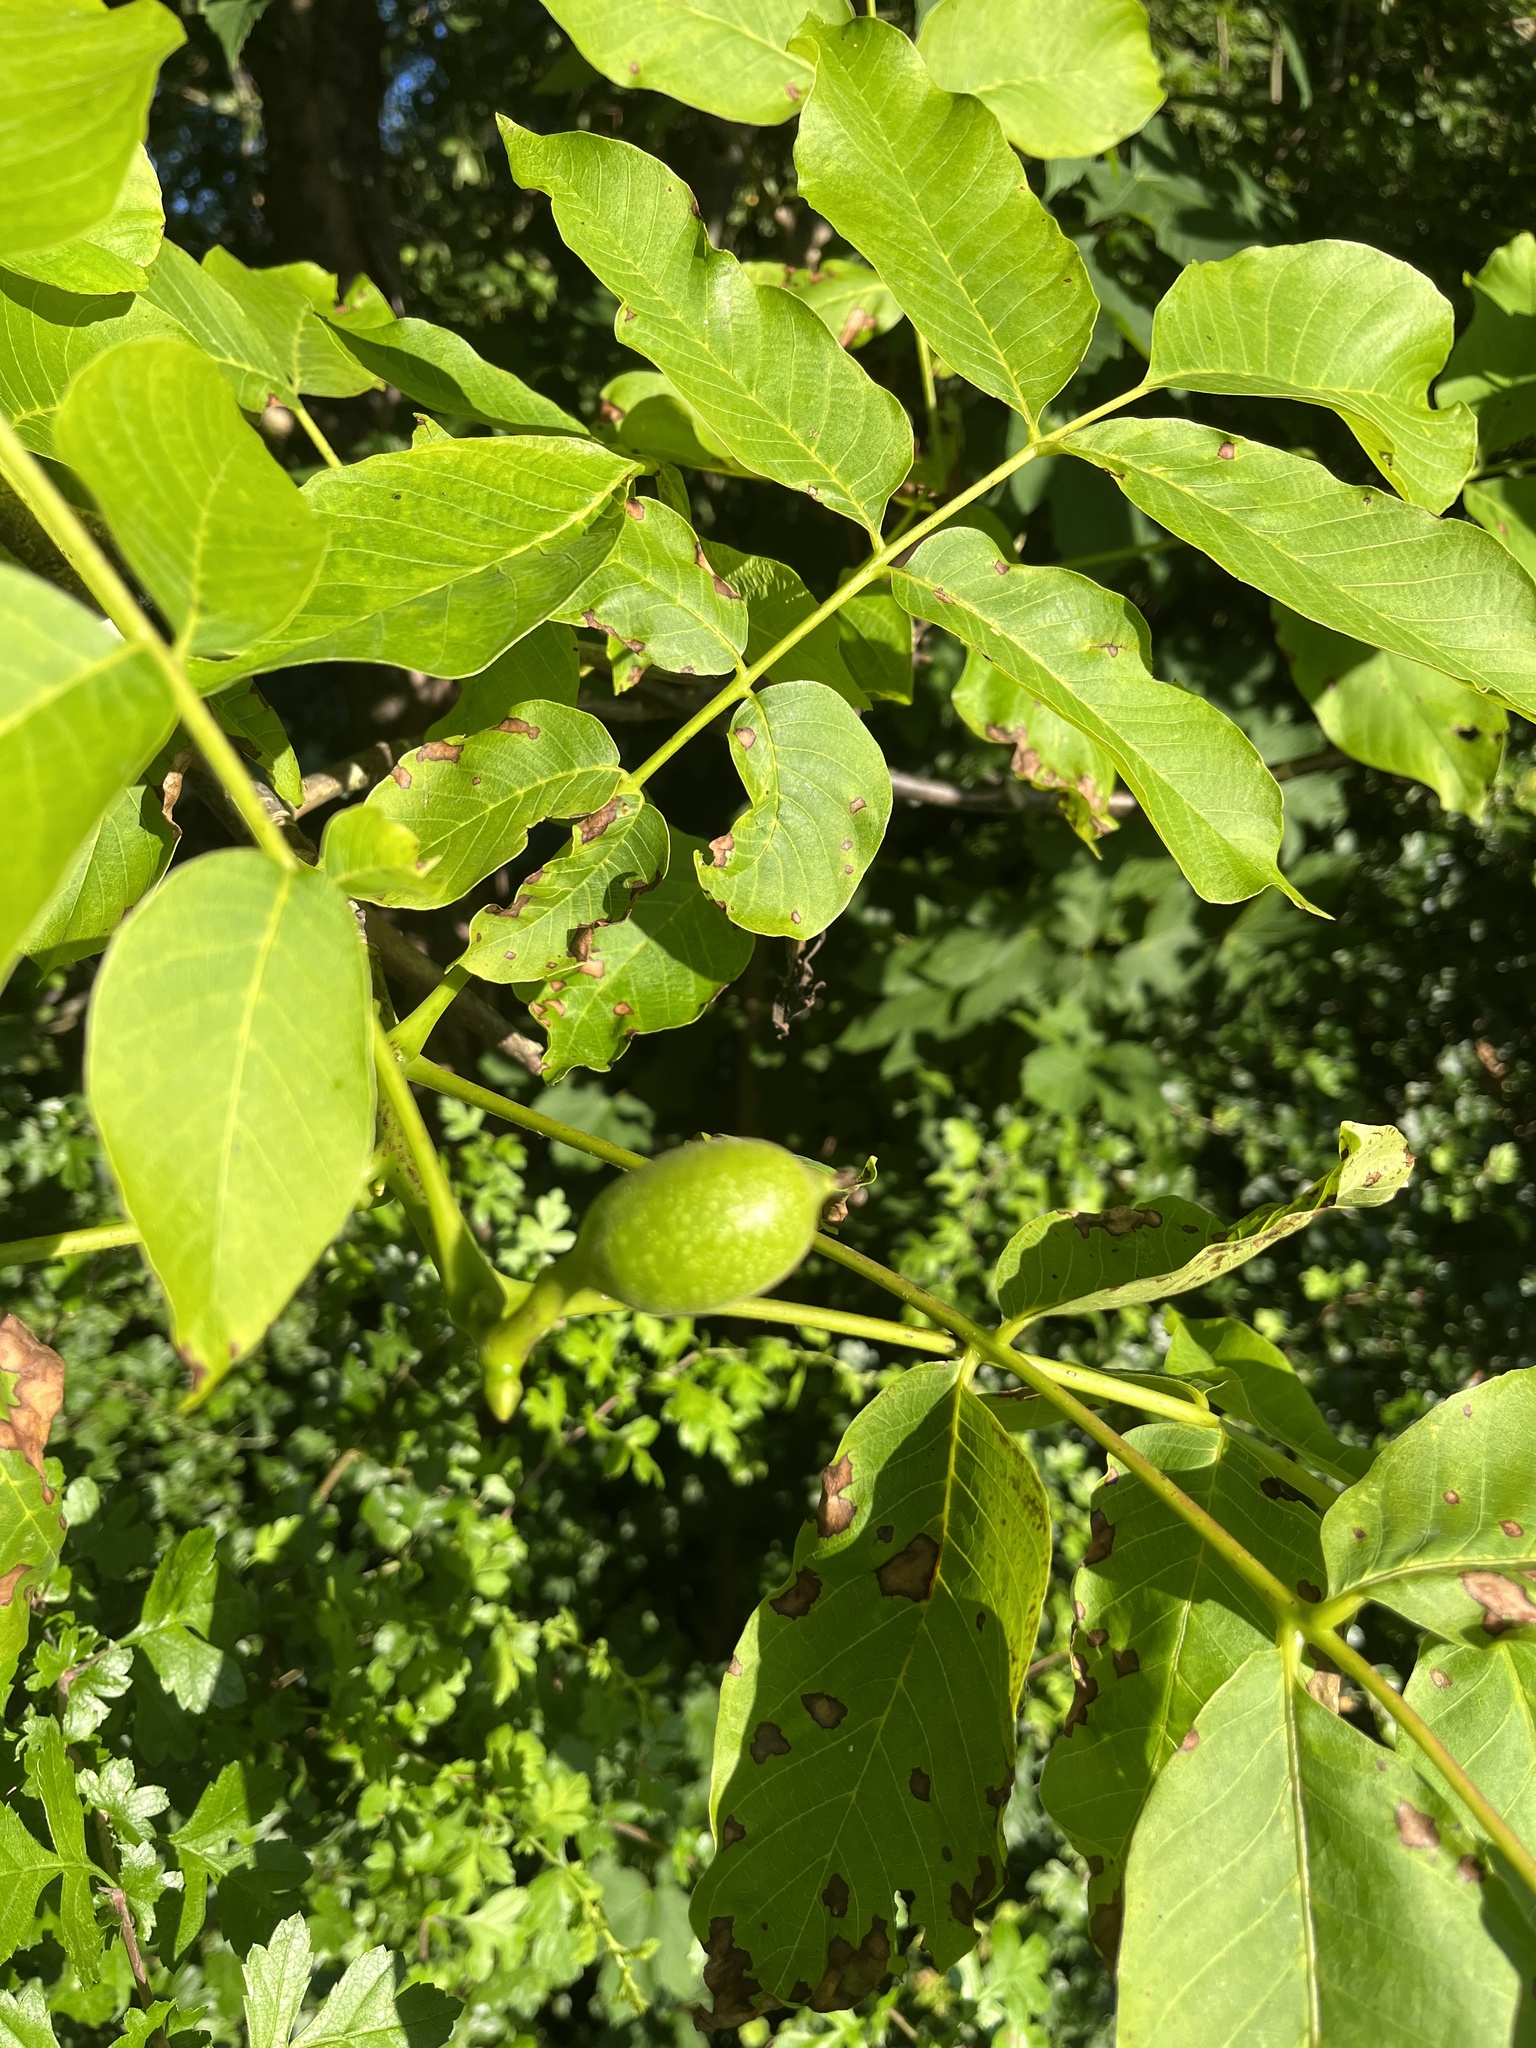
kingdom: Plantae
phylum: Tracheophyta
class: Magnoliopsida
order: Fagales
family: Juglandaceae
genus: Juglans
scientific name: Juglans regia
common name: Walnut
